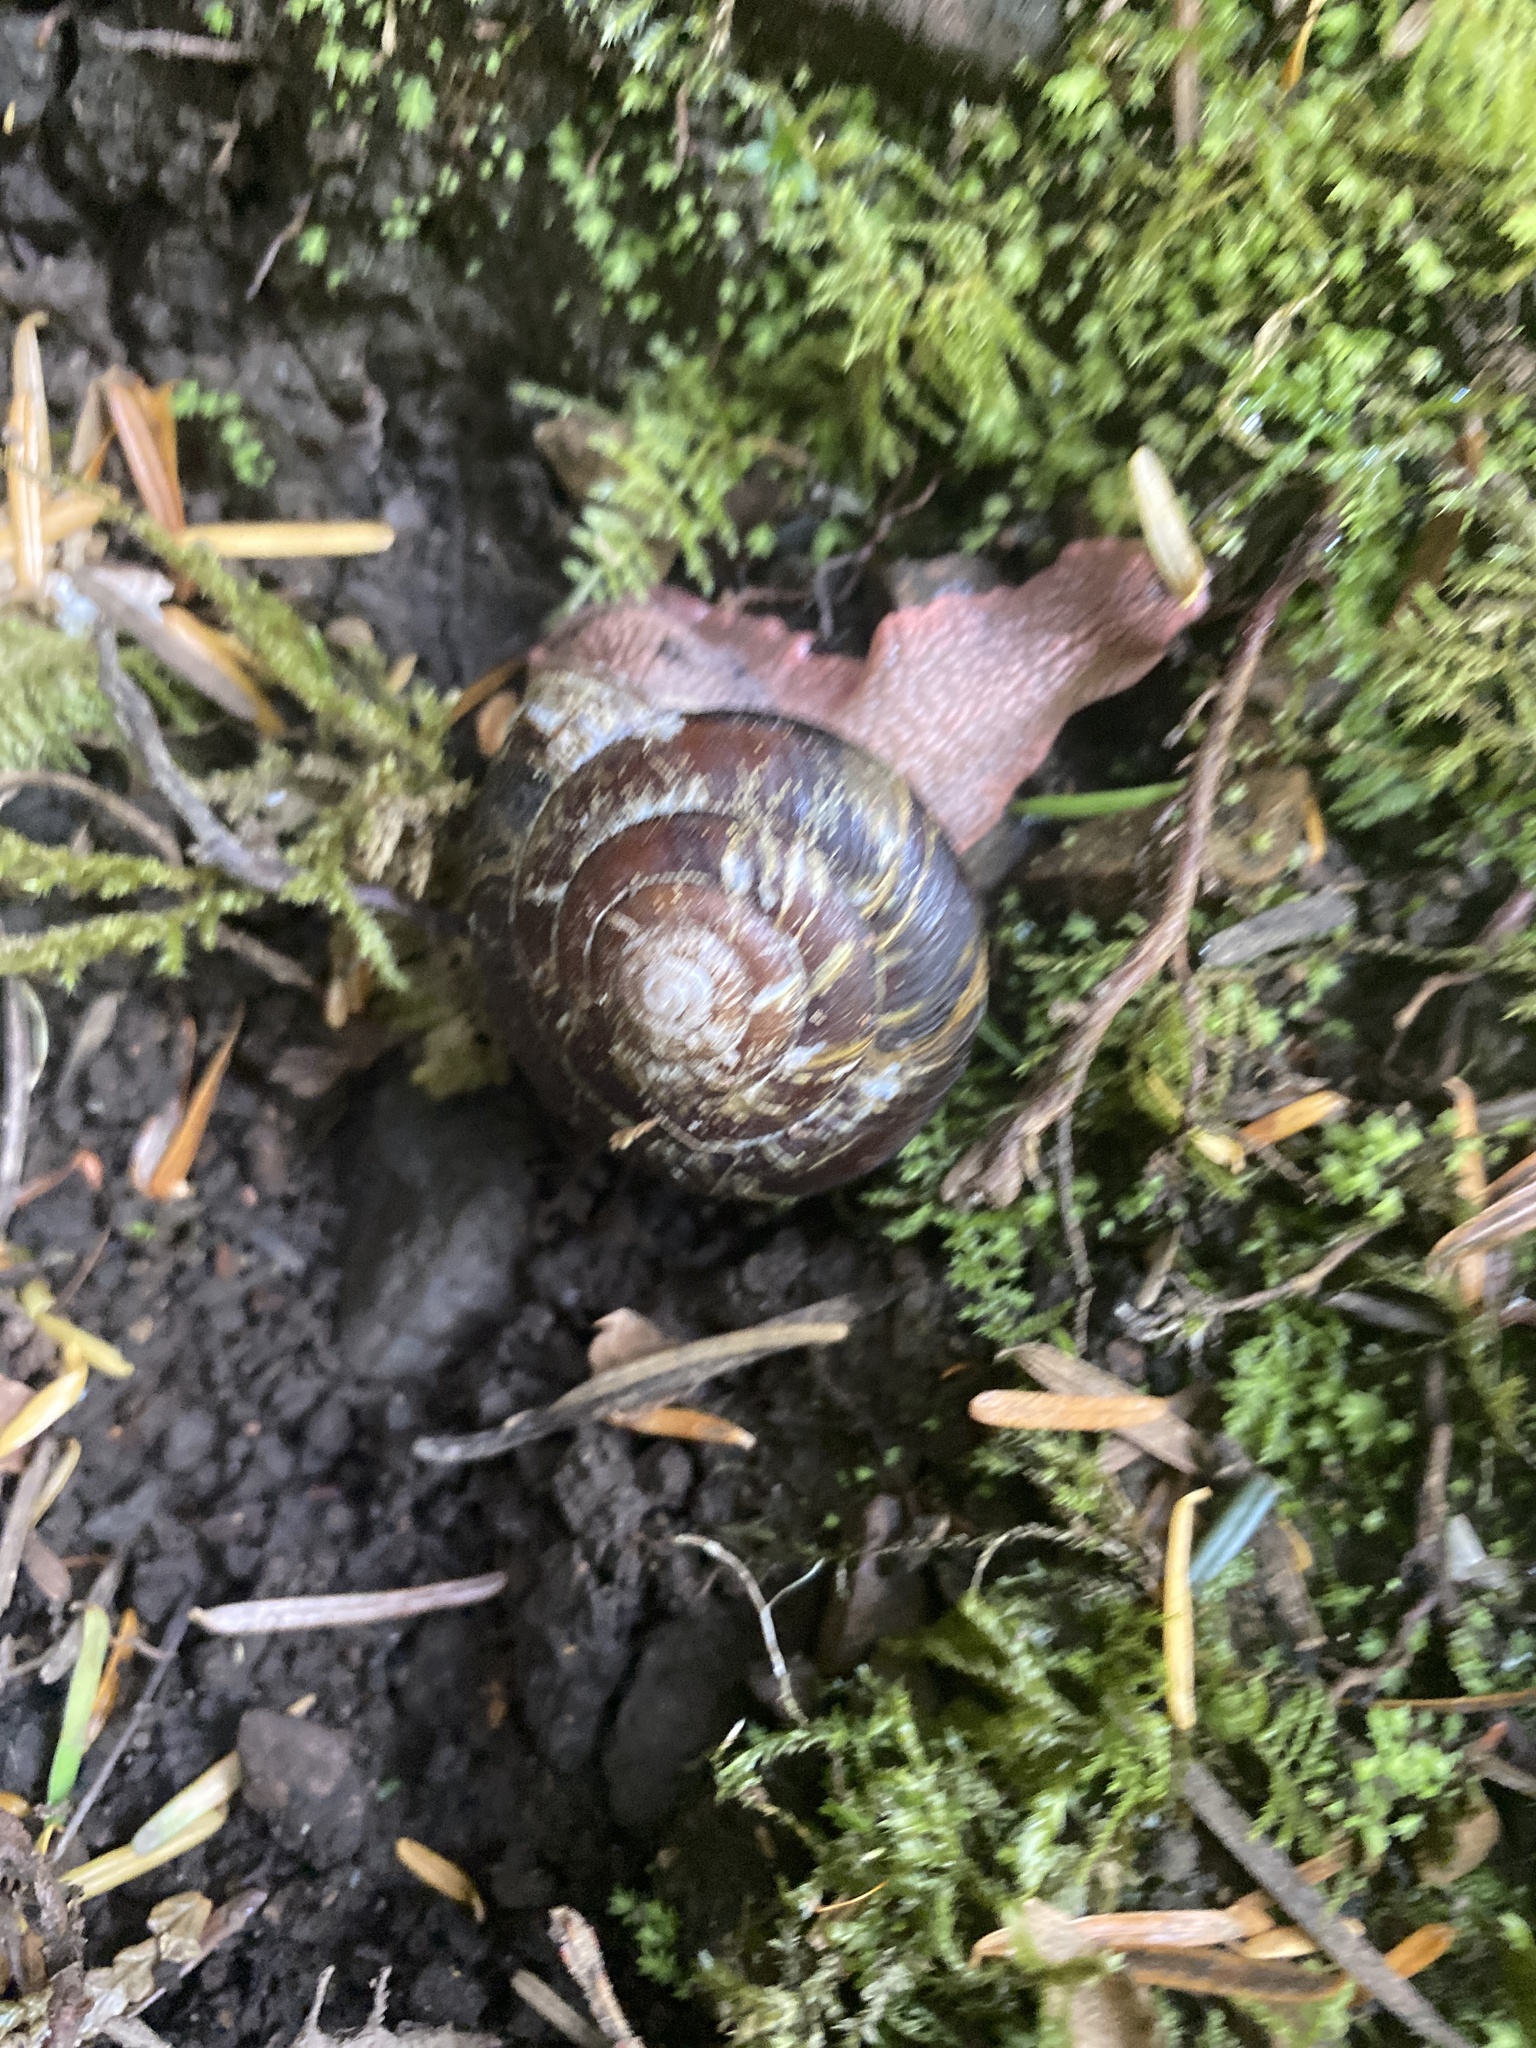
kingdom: Animalia
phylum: Mollusca
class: Gastropoda
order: Stylommatophora
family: Xanthonychidae
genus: Monadenia
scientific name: Monadenia fidelis
